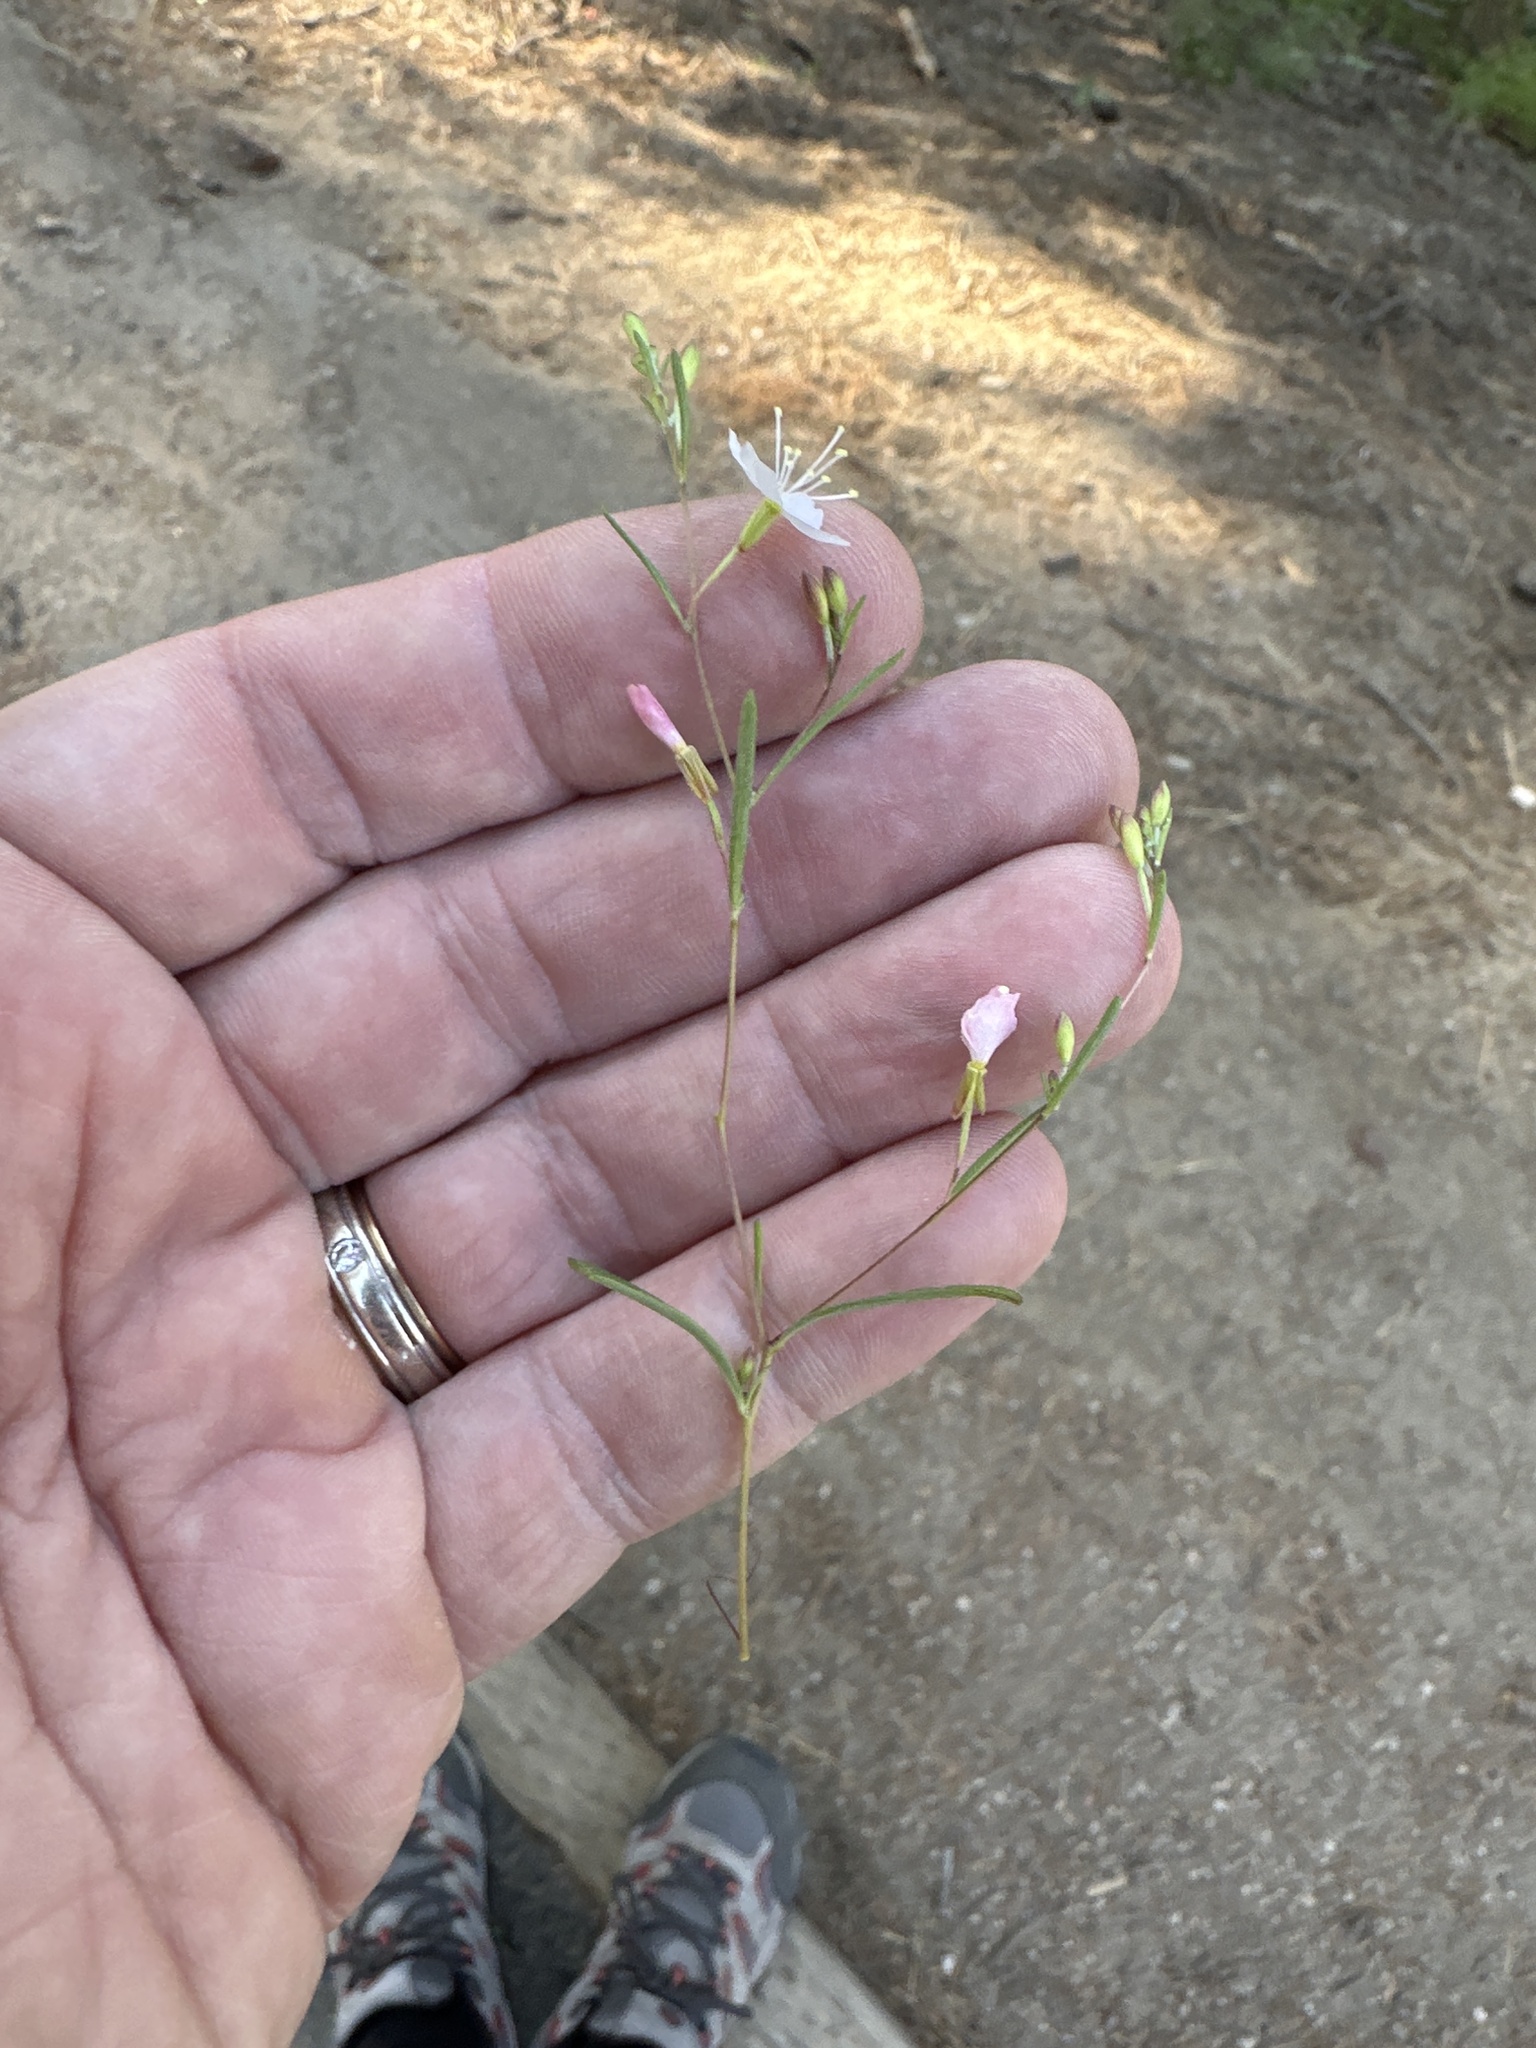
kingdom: Plantae
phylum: Tracheophyta
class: Magnoliopsida
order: Myrtales
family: Onagraceae
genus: Gayophytum
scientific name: Gayophytum eriospermum
